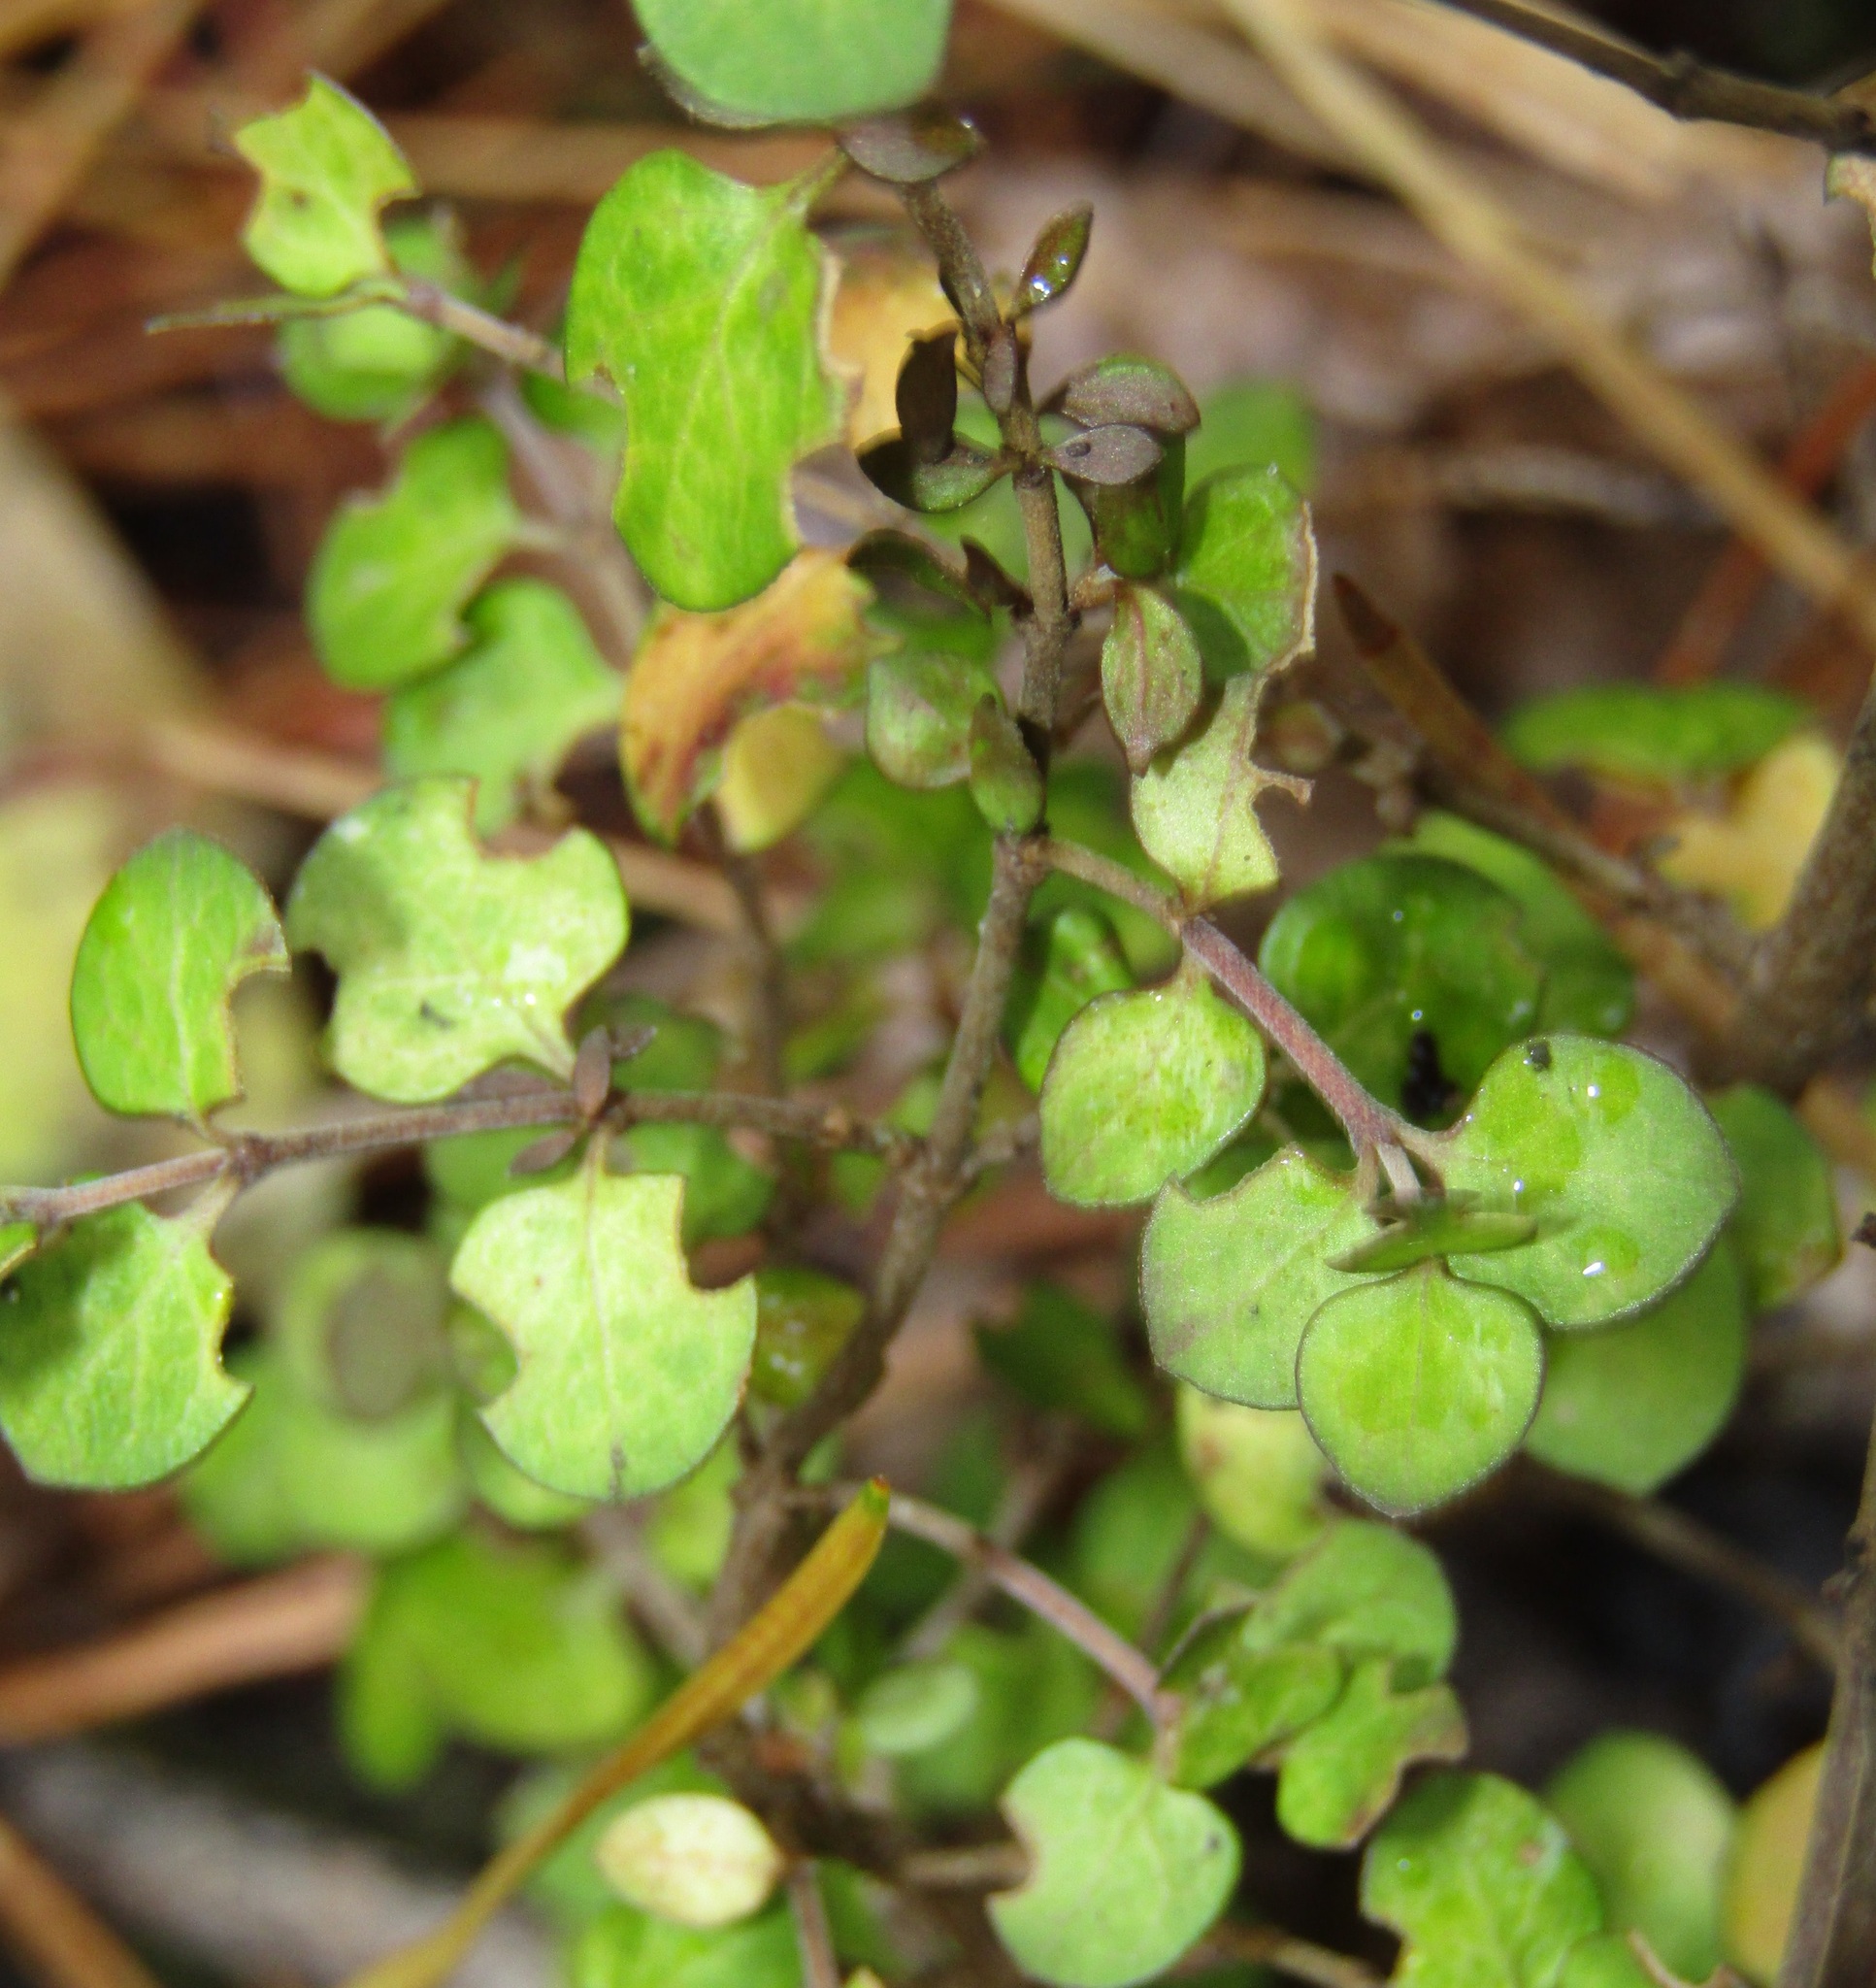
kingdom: Plantae
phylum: Tracheophyta
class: Magnoliopsida
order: Gentianales
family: Rubiaceae
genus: Coprosma
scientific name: Coprosma rhamnoides
